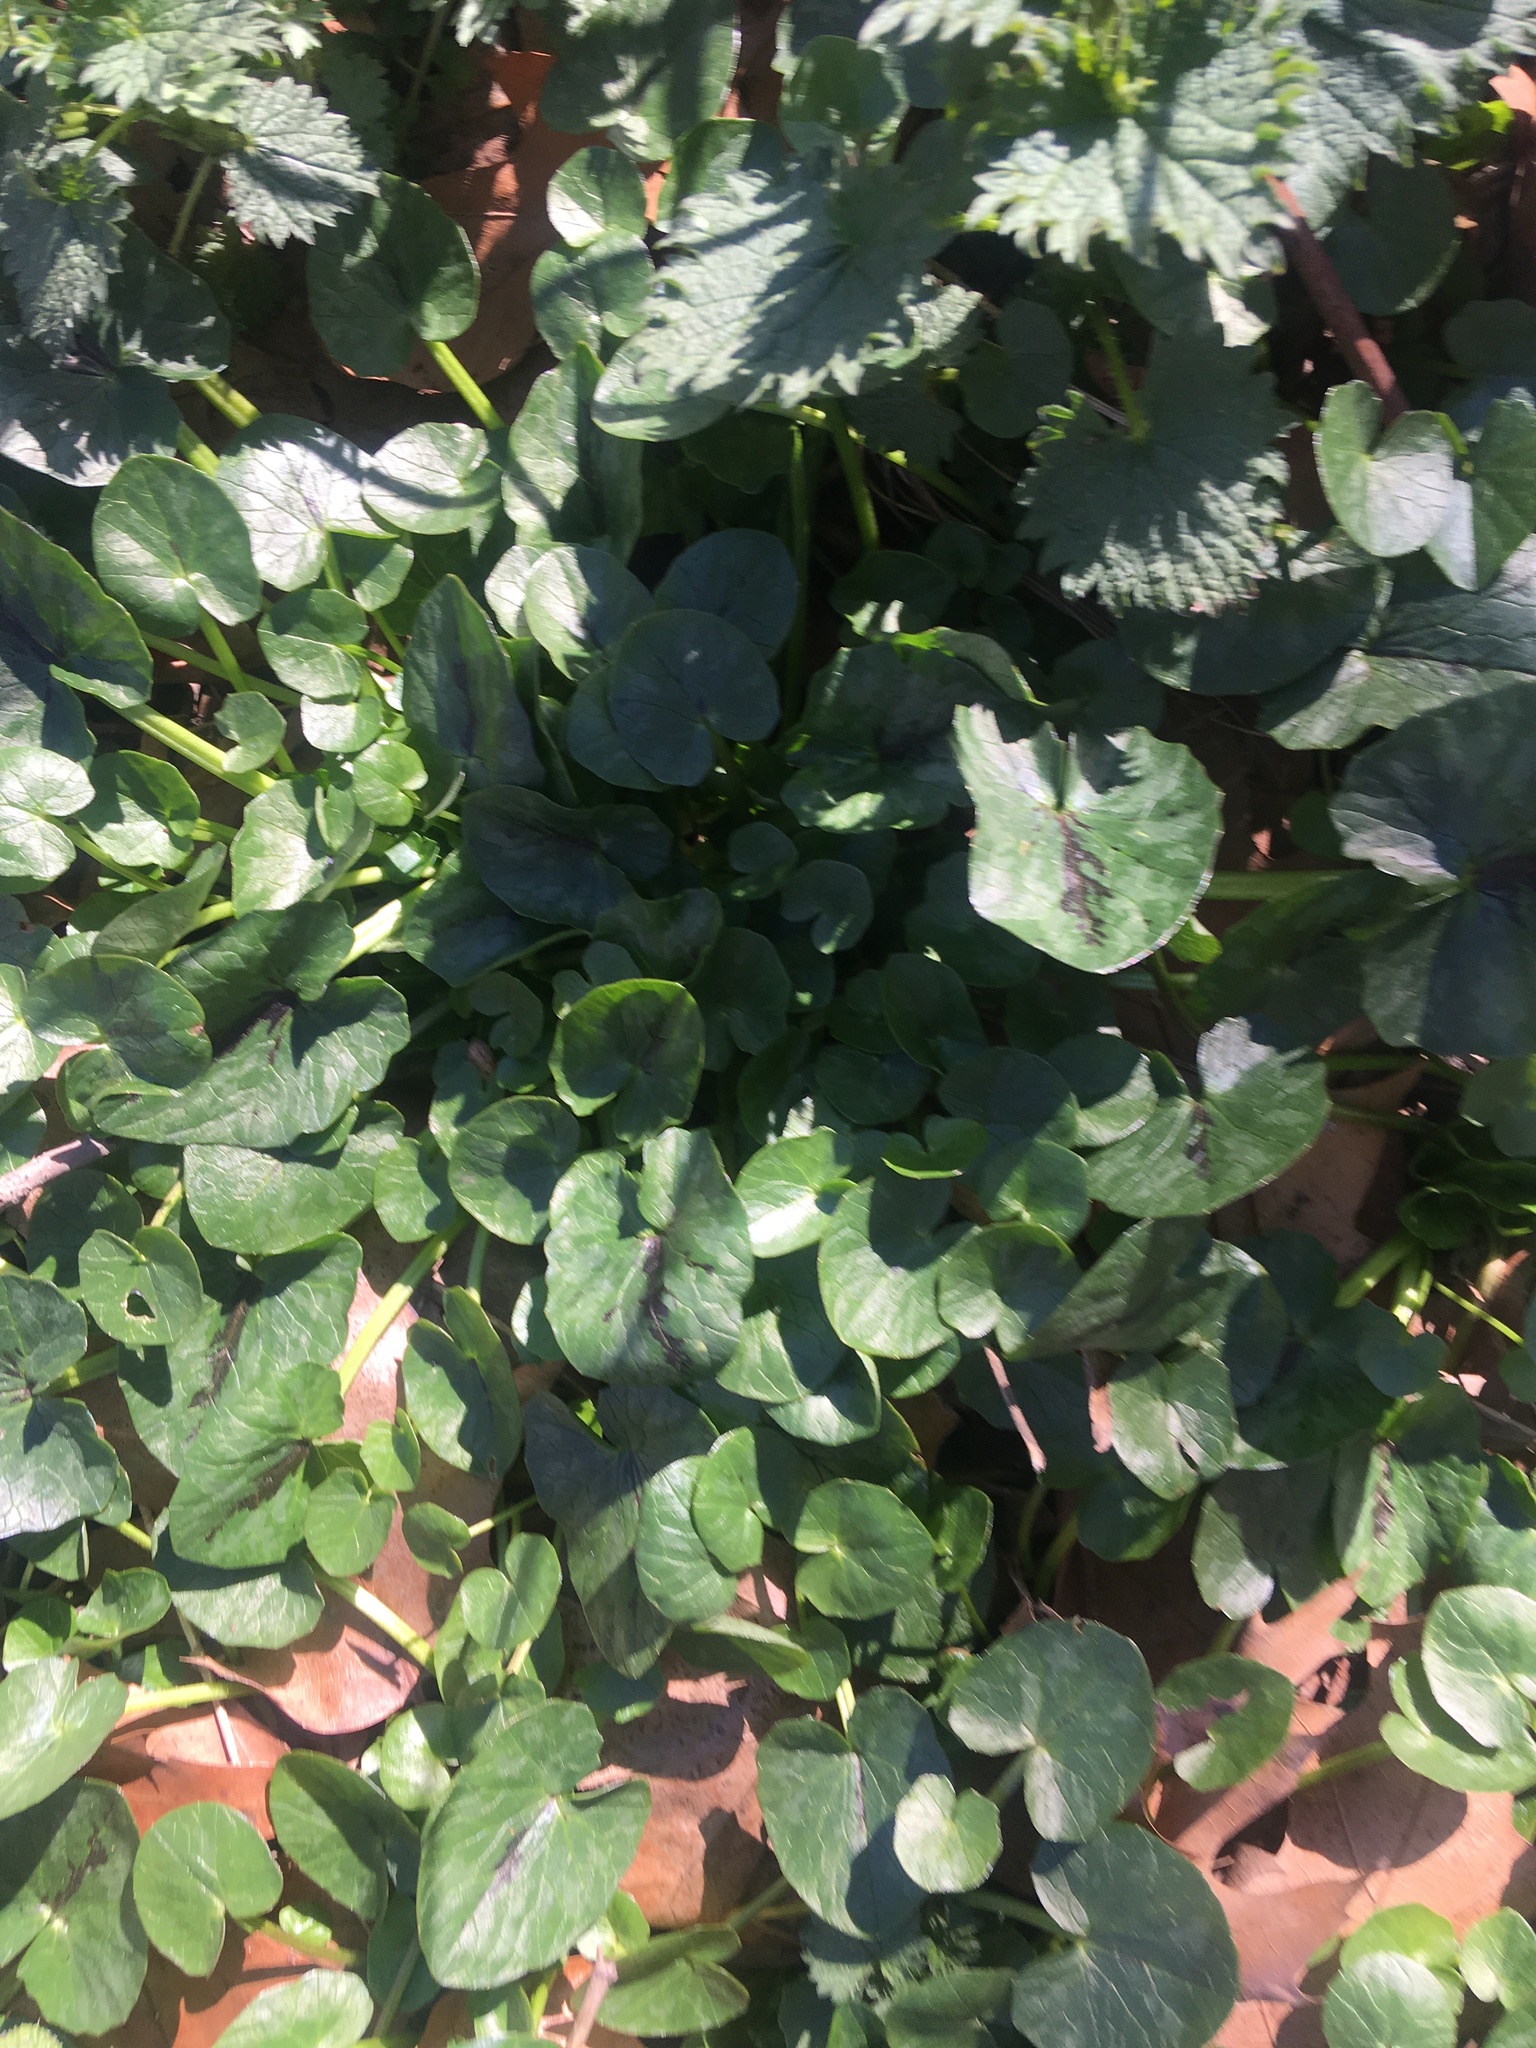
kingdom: Plantae
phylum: Tracheophyta
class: Magnoliopsida
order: Ranunculales
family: Ranunculaceae
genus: Ficaria
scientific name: Ficaria verna
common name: Lesser celandine
